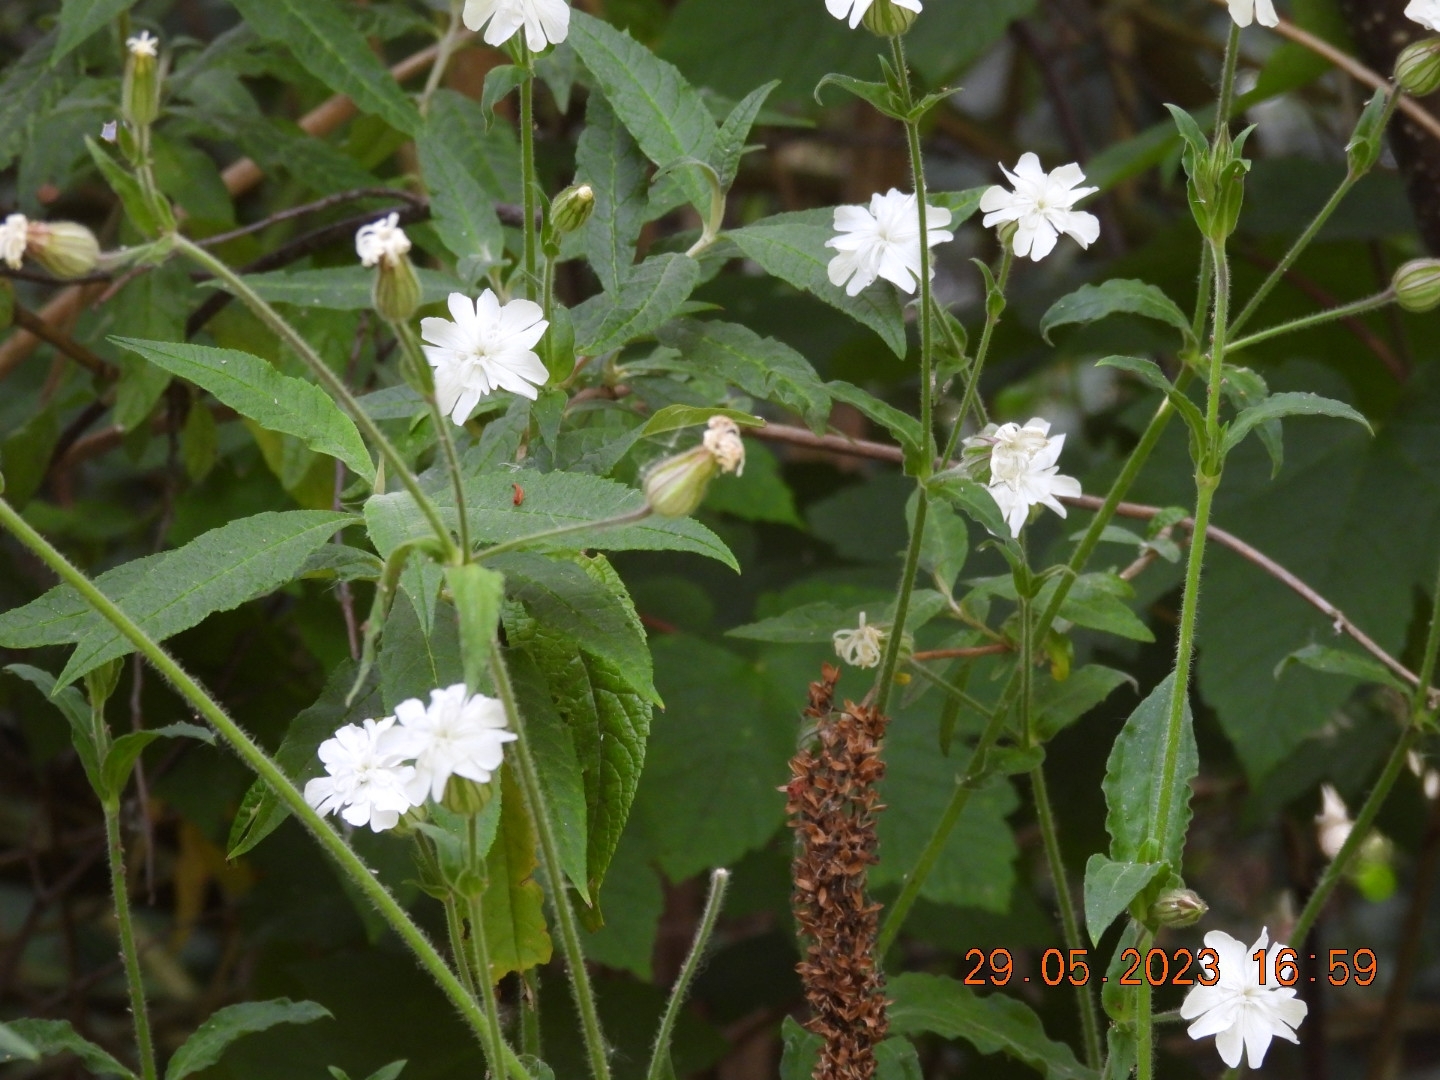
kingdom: Plantae
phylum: Tracheophyta
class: Magnoliopsida
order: Caryophyllales
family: Caryophyllaceae
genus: Silene
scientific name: Silene latifolia
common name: White campion
